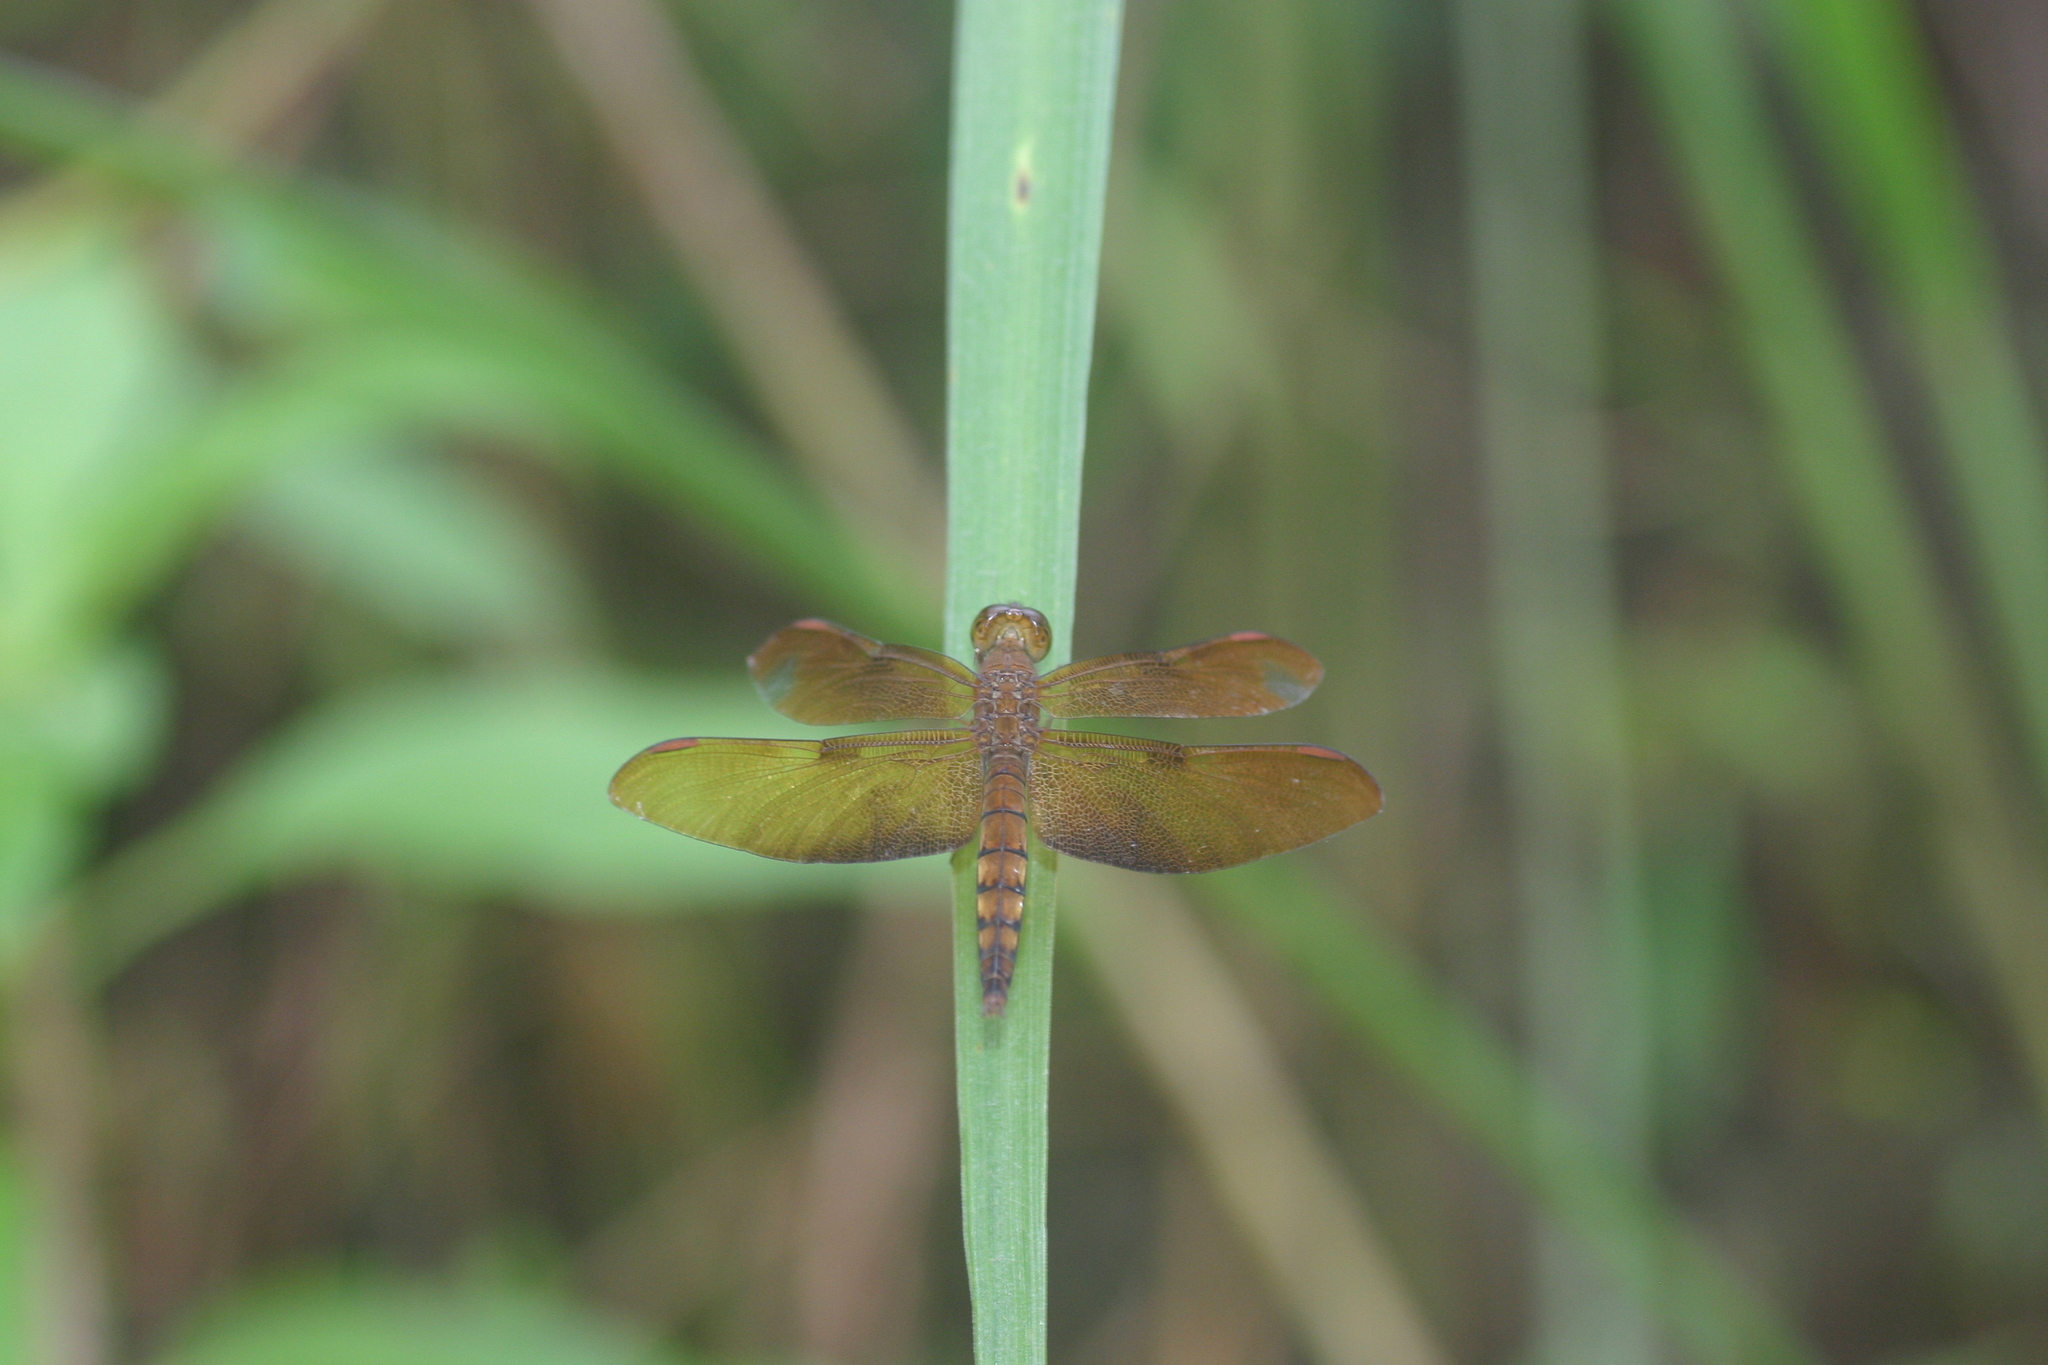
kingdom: Animalia
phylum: Arthropoda
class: Insecta
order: Odonata
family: Libellulidae
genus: Neurothemis
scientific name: Neurothemis fulvia
